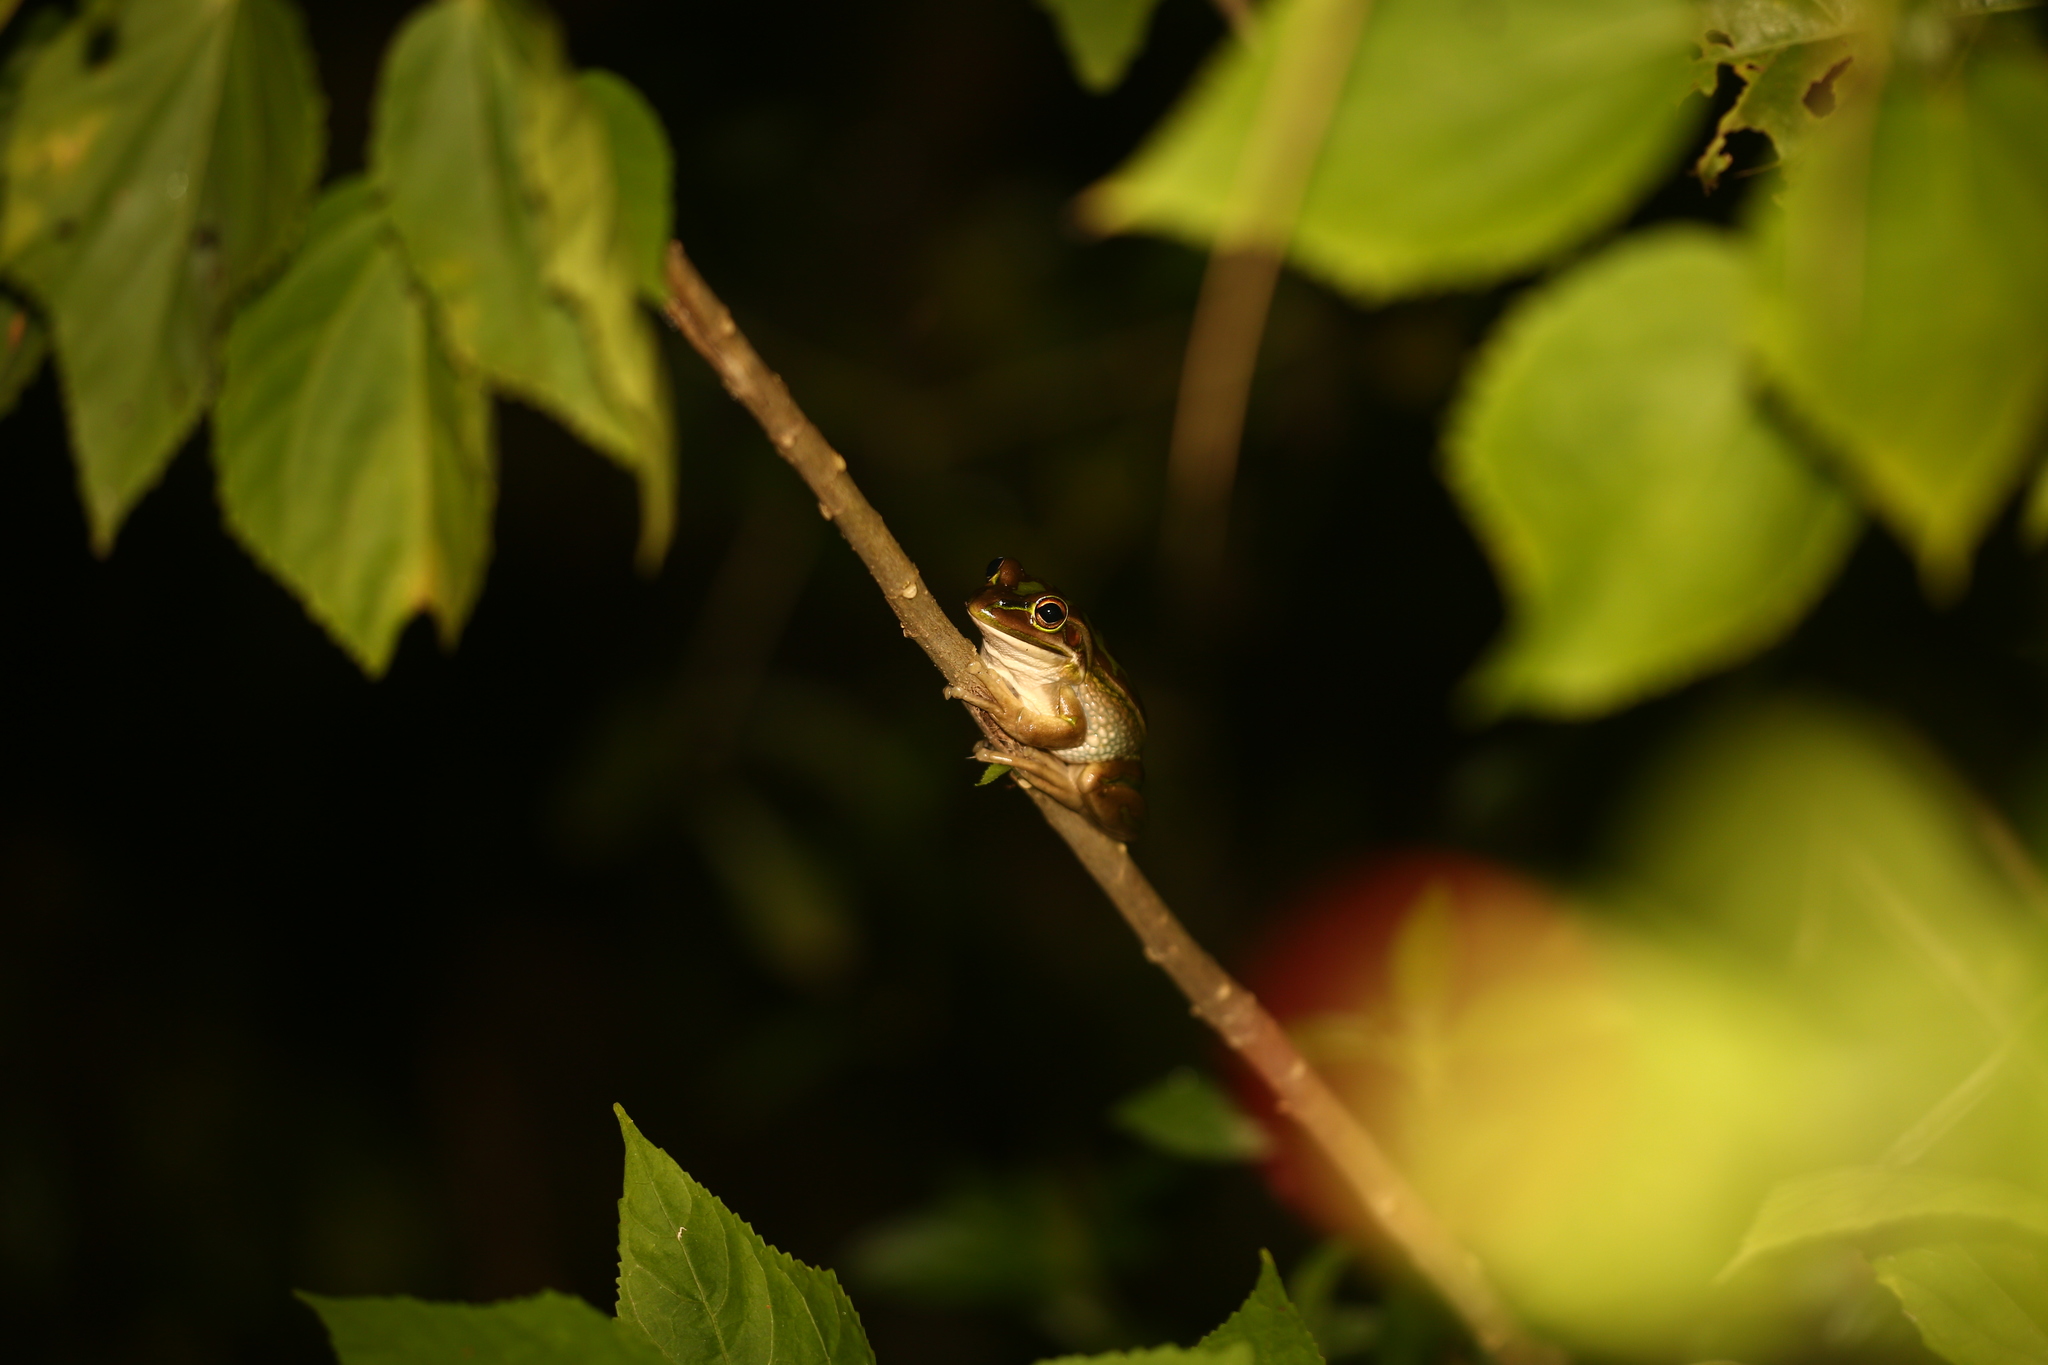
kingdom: Animalia
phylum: Chordata
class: Amphibia
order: Anura
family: Pelodryadidae
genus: Ranoidea
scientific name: Ranoidea aurea
